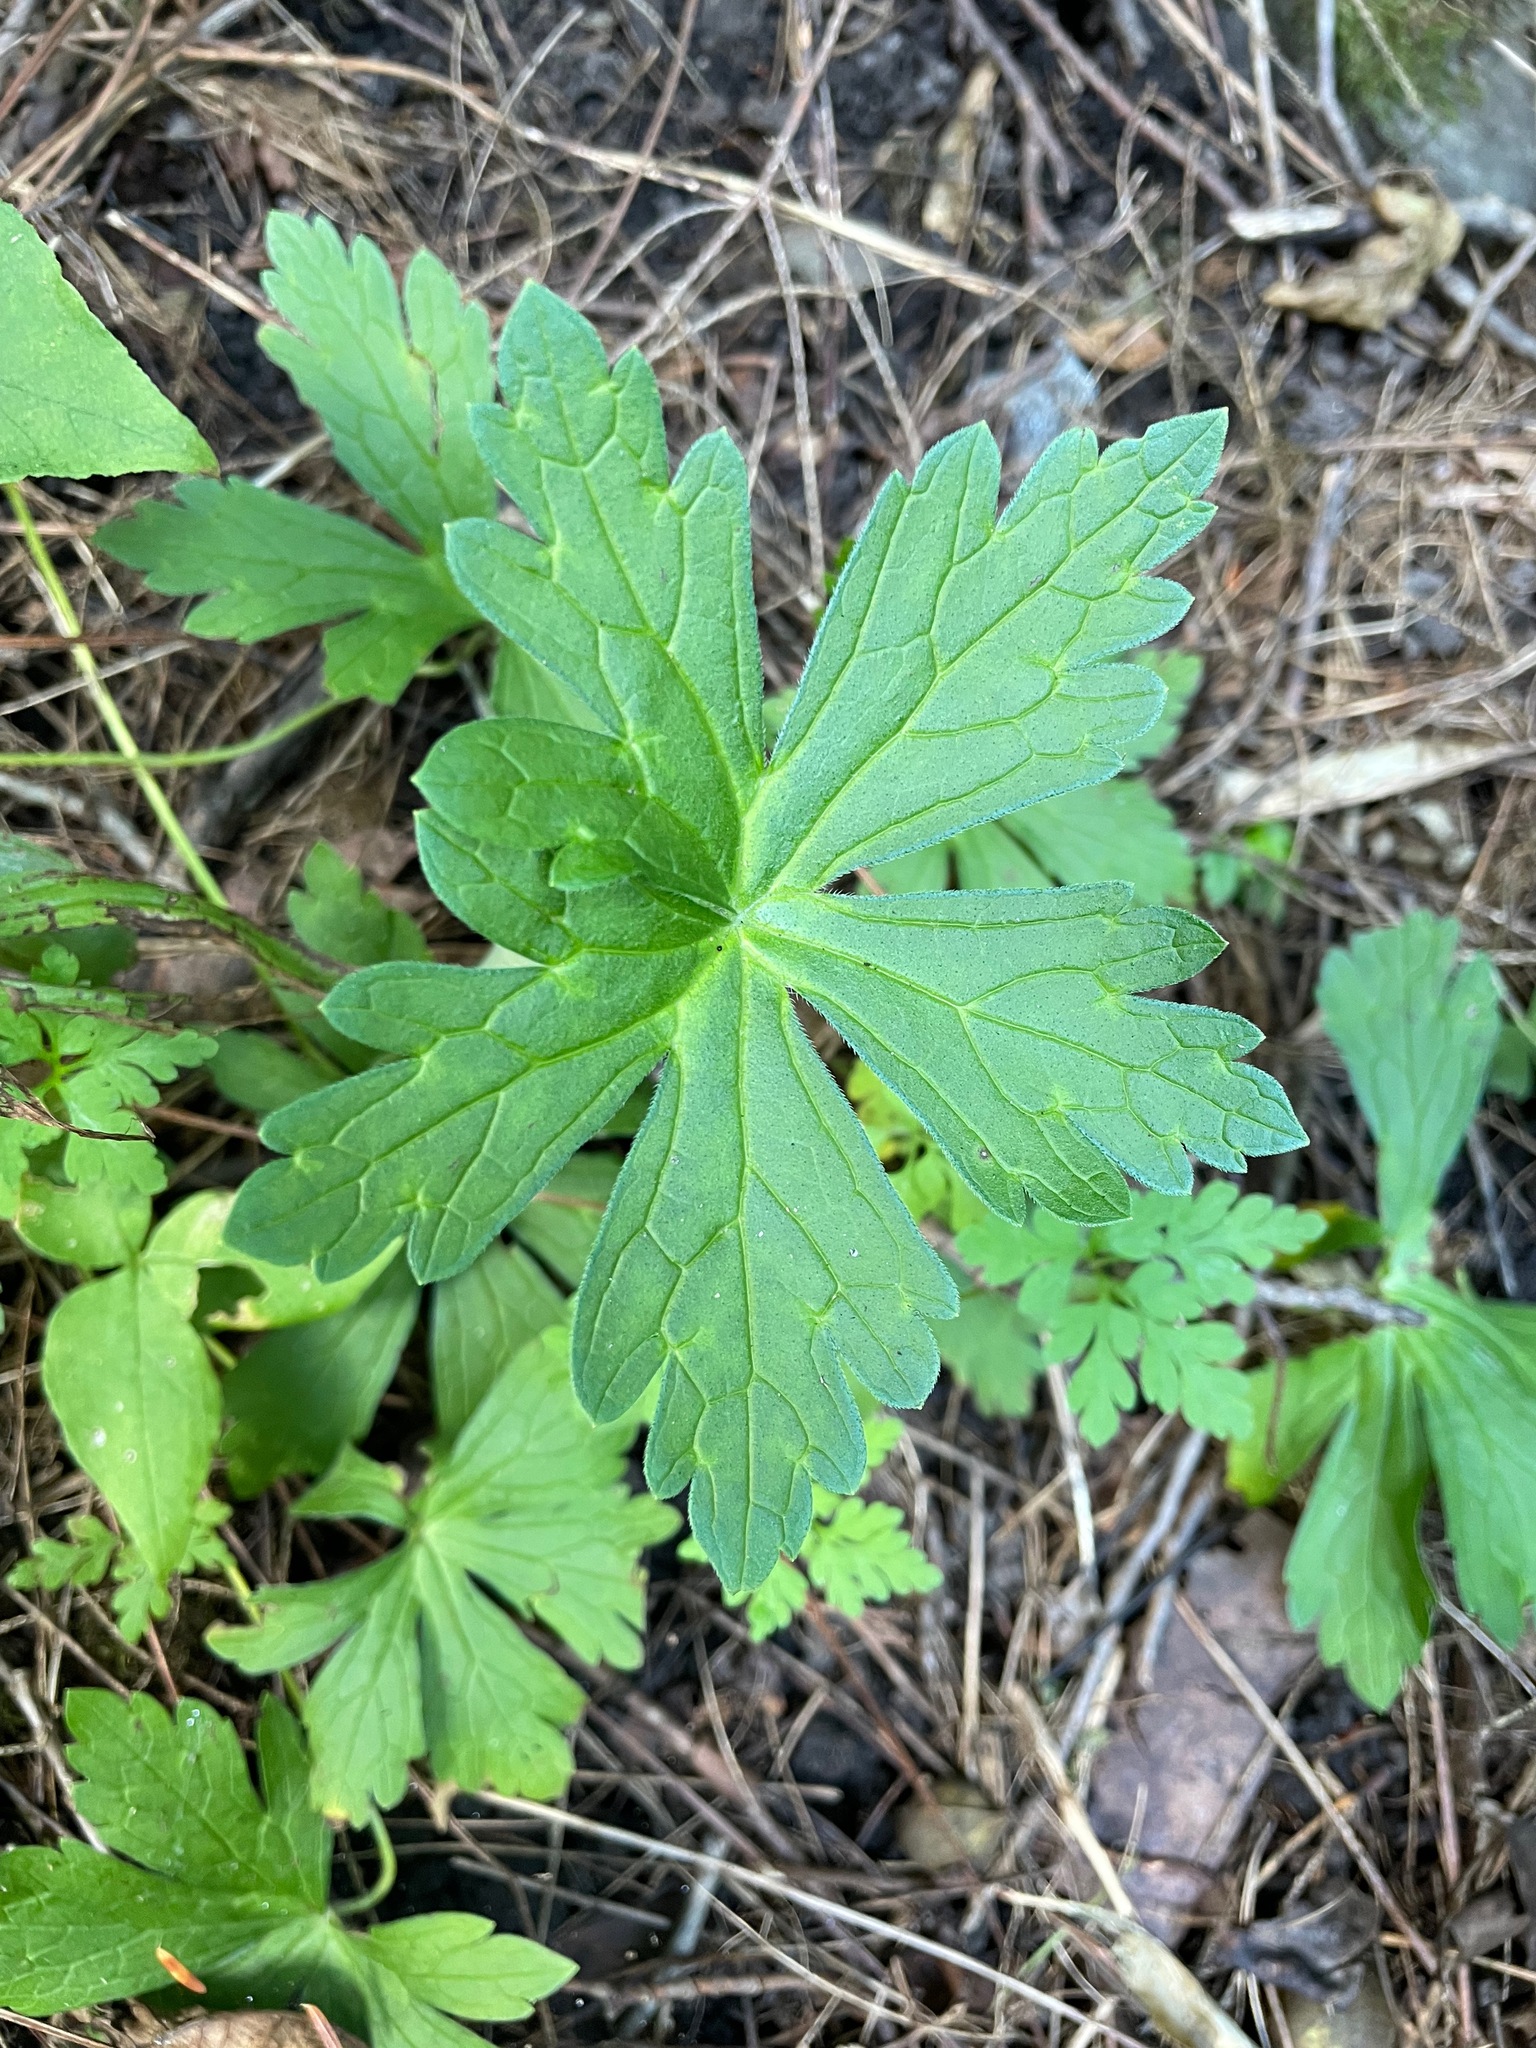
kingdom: Plantae
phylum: Tracheophyta
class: Magnoliopsida
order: Geraniales
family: Geraniaceae
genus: Geranium
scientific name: Geranium maculatum
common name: Spotted geranium
